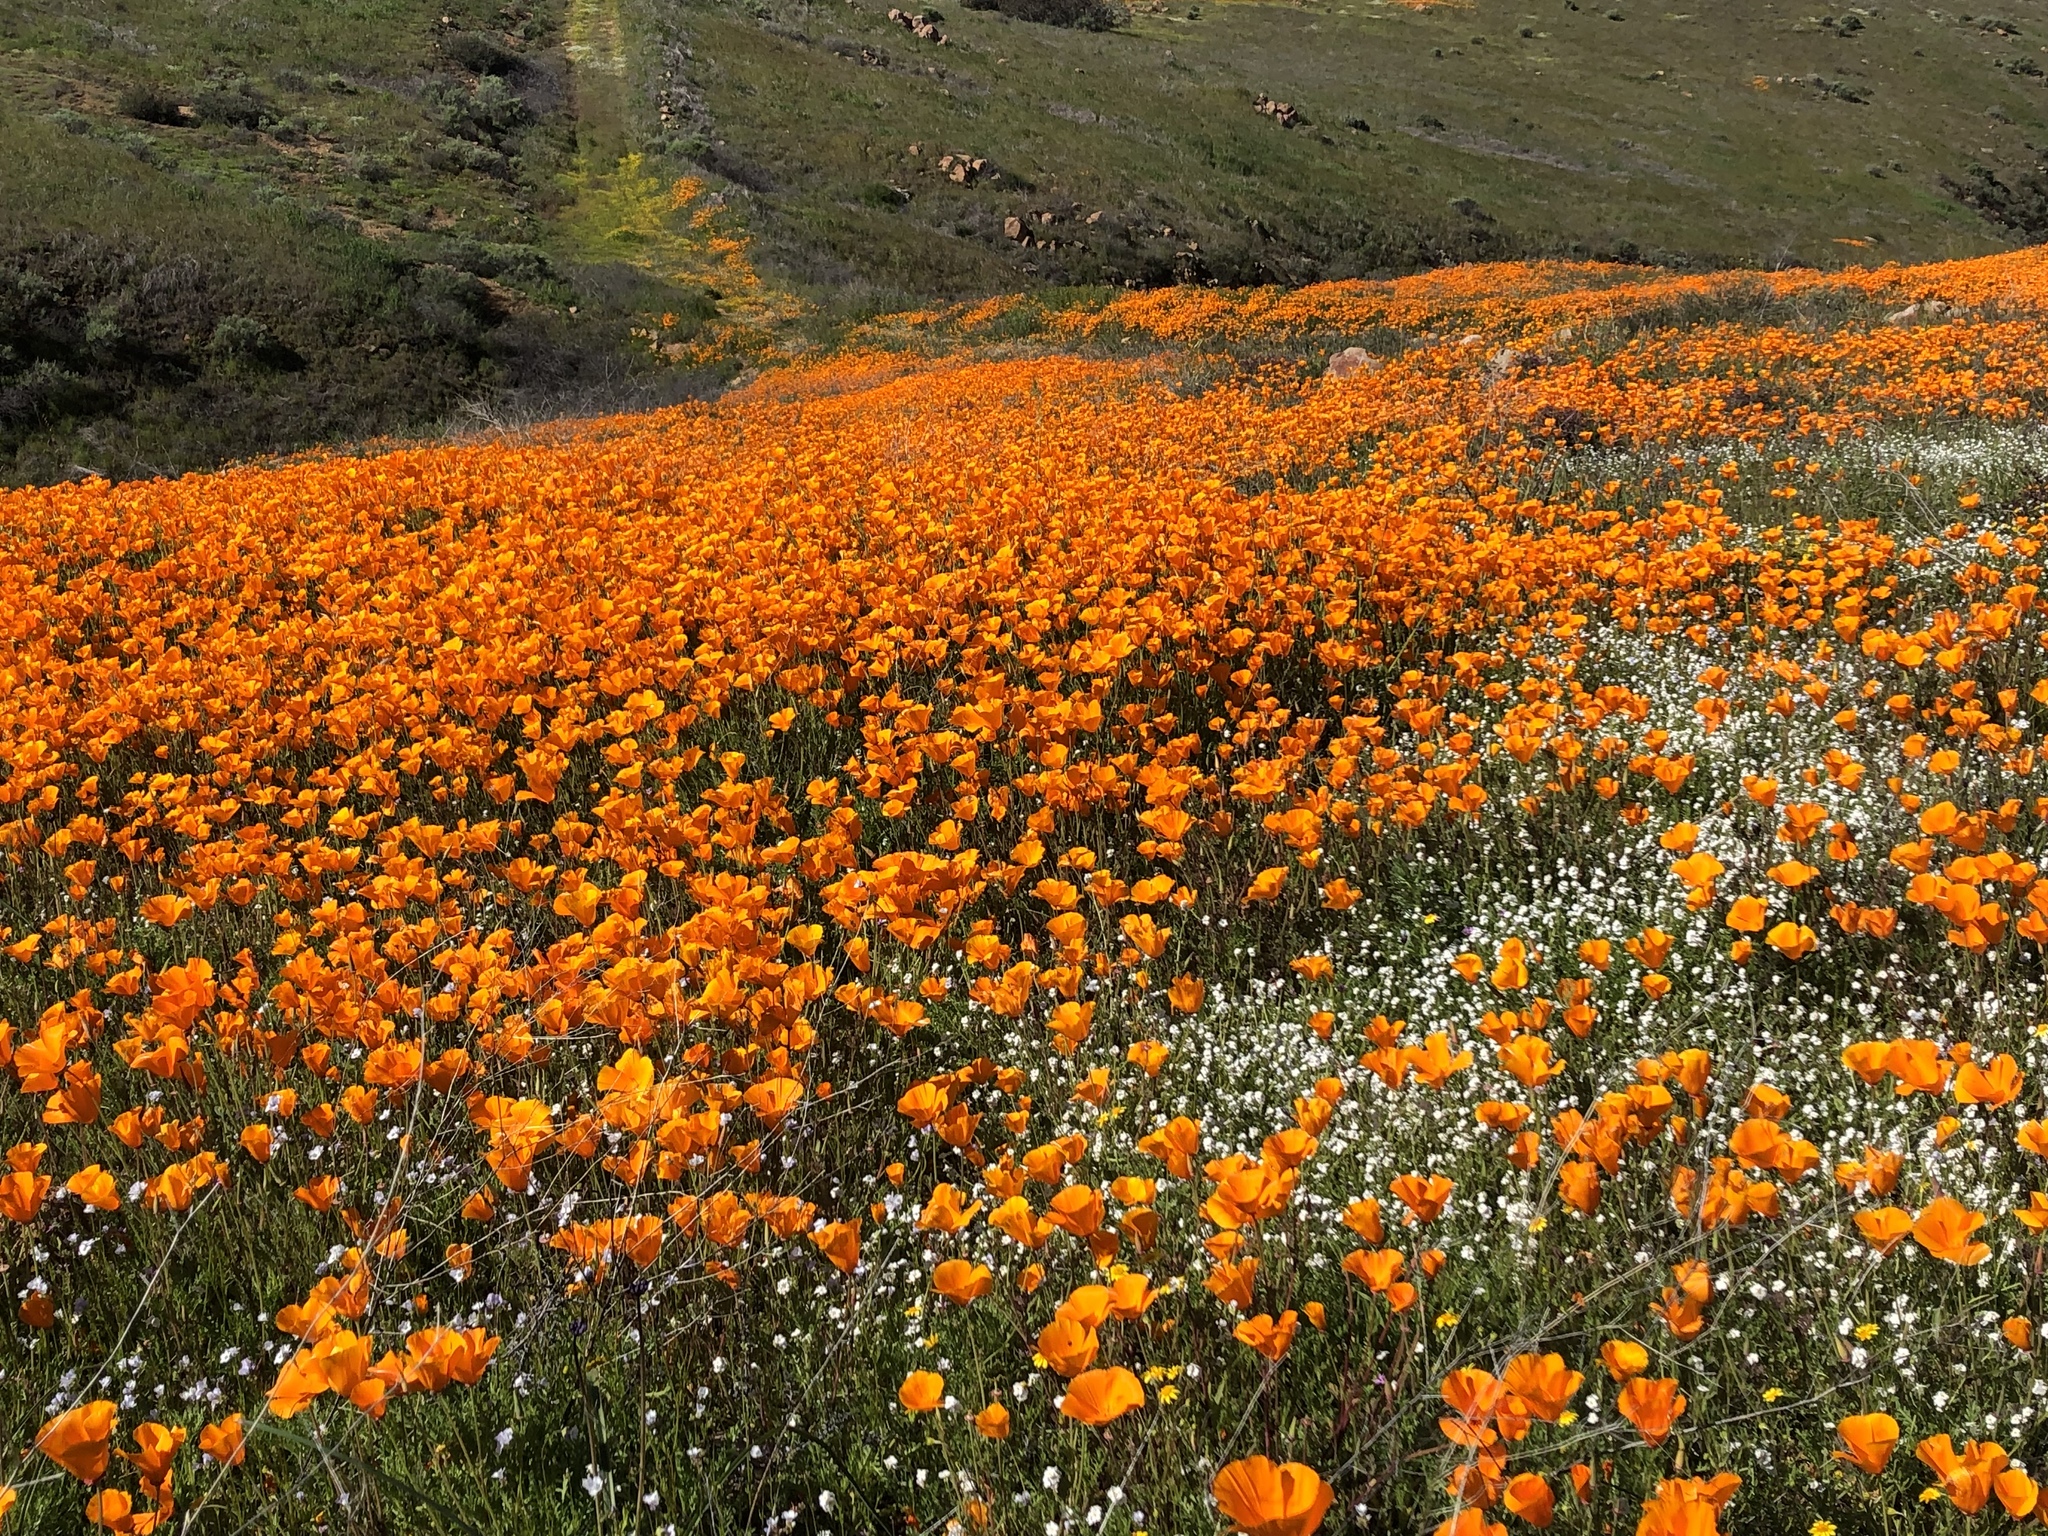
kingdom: Plantae
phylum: Tracheophyta
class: Magnoliopsida
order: Ranunculales
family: Papaveraceae
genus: Eschscholzia
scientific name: Eschscholzia californica
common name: California poppy
